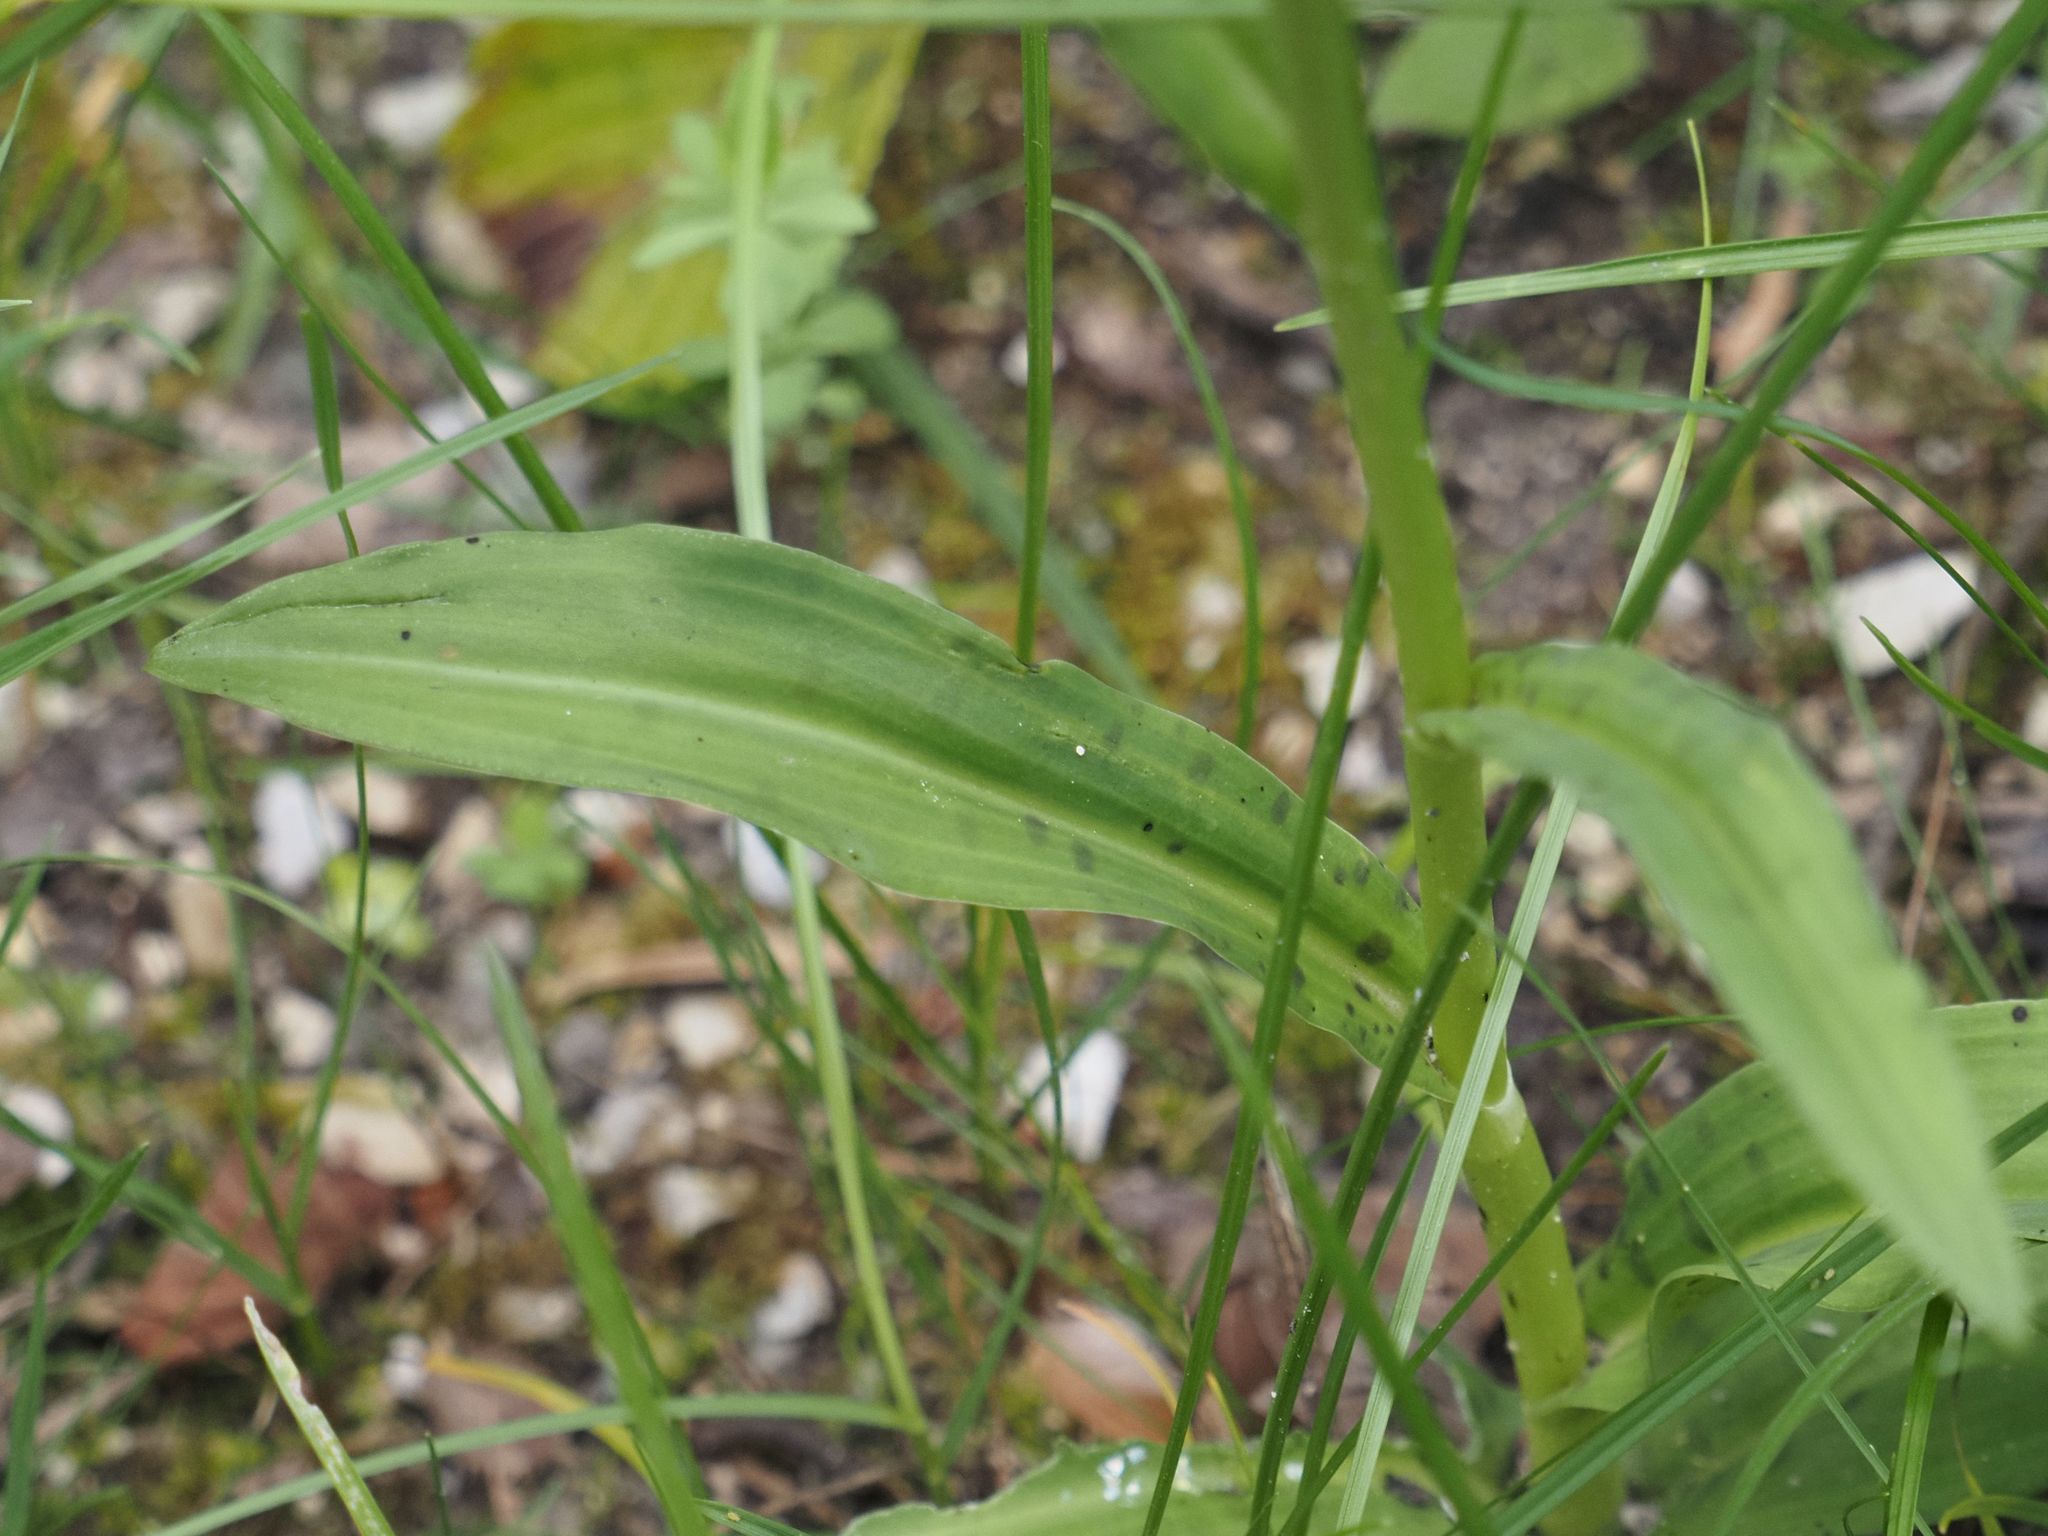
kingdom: Plantae
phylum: Tracheophyta
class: Liliopsida
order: Asparagales
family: Orchidaceae
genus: Dactylorhiza
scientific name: Dactylorhiza maculata
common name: Heath spotted-orchid
